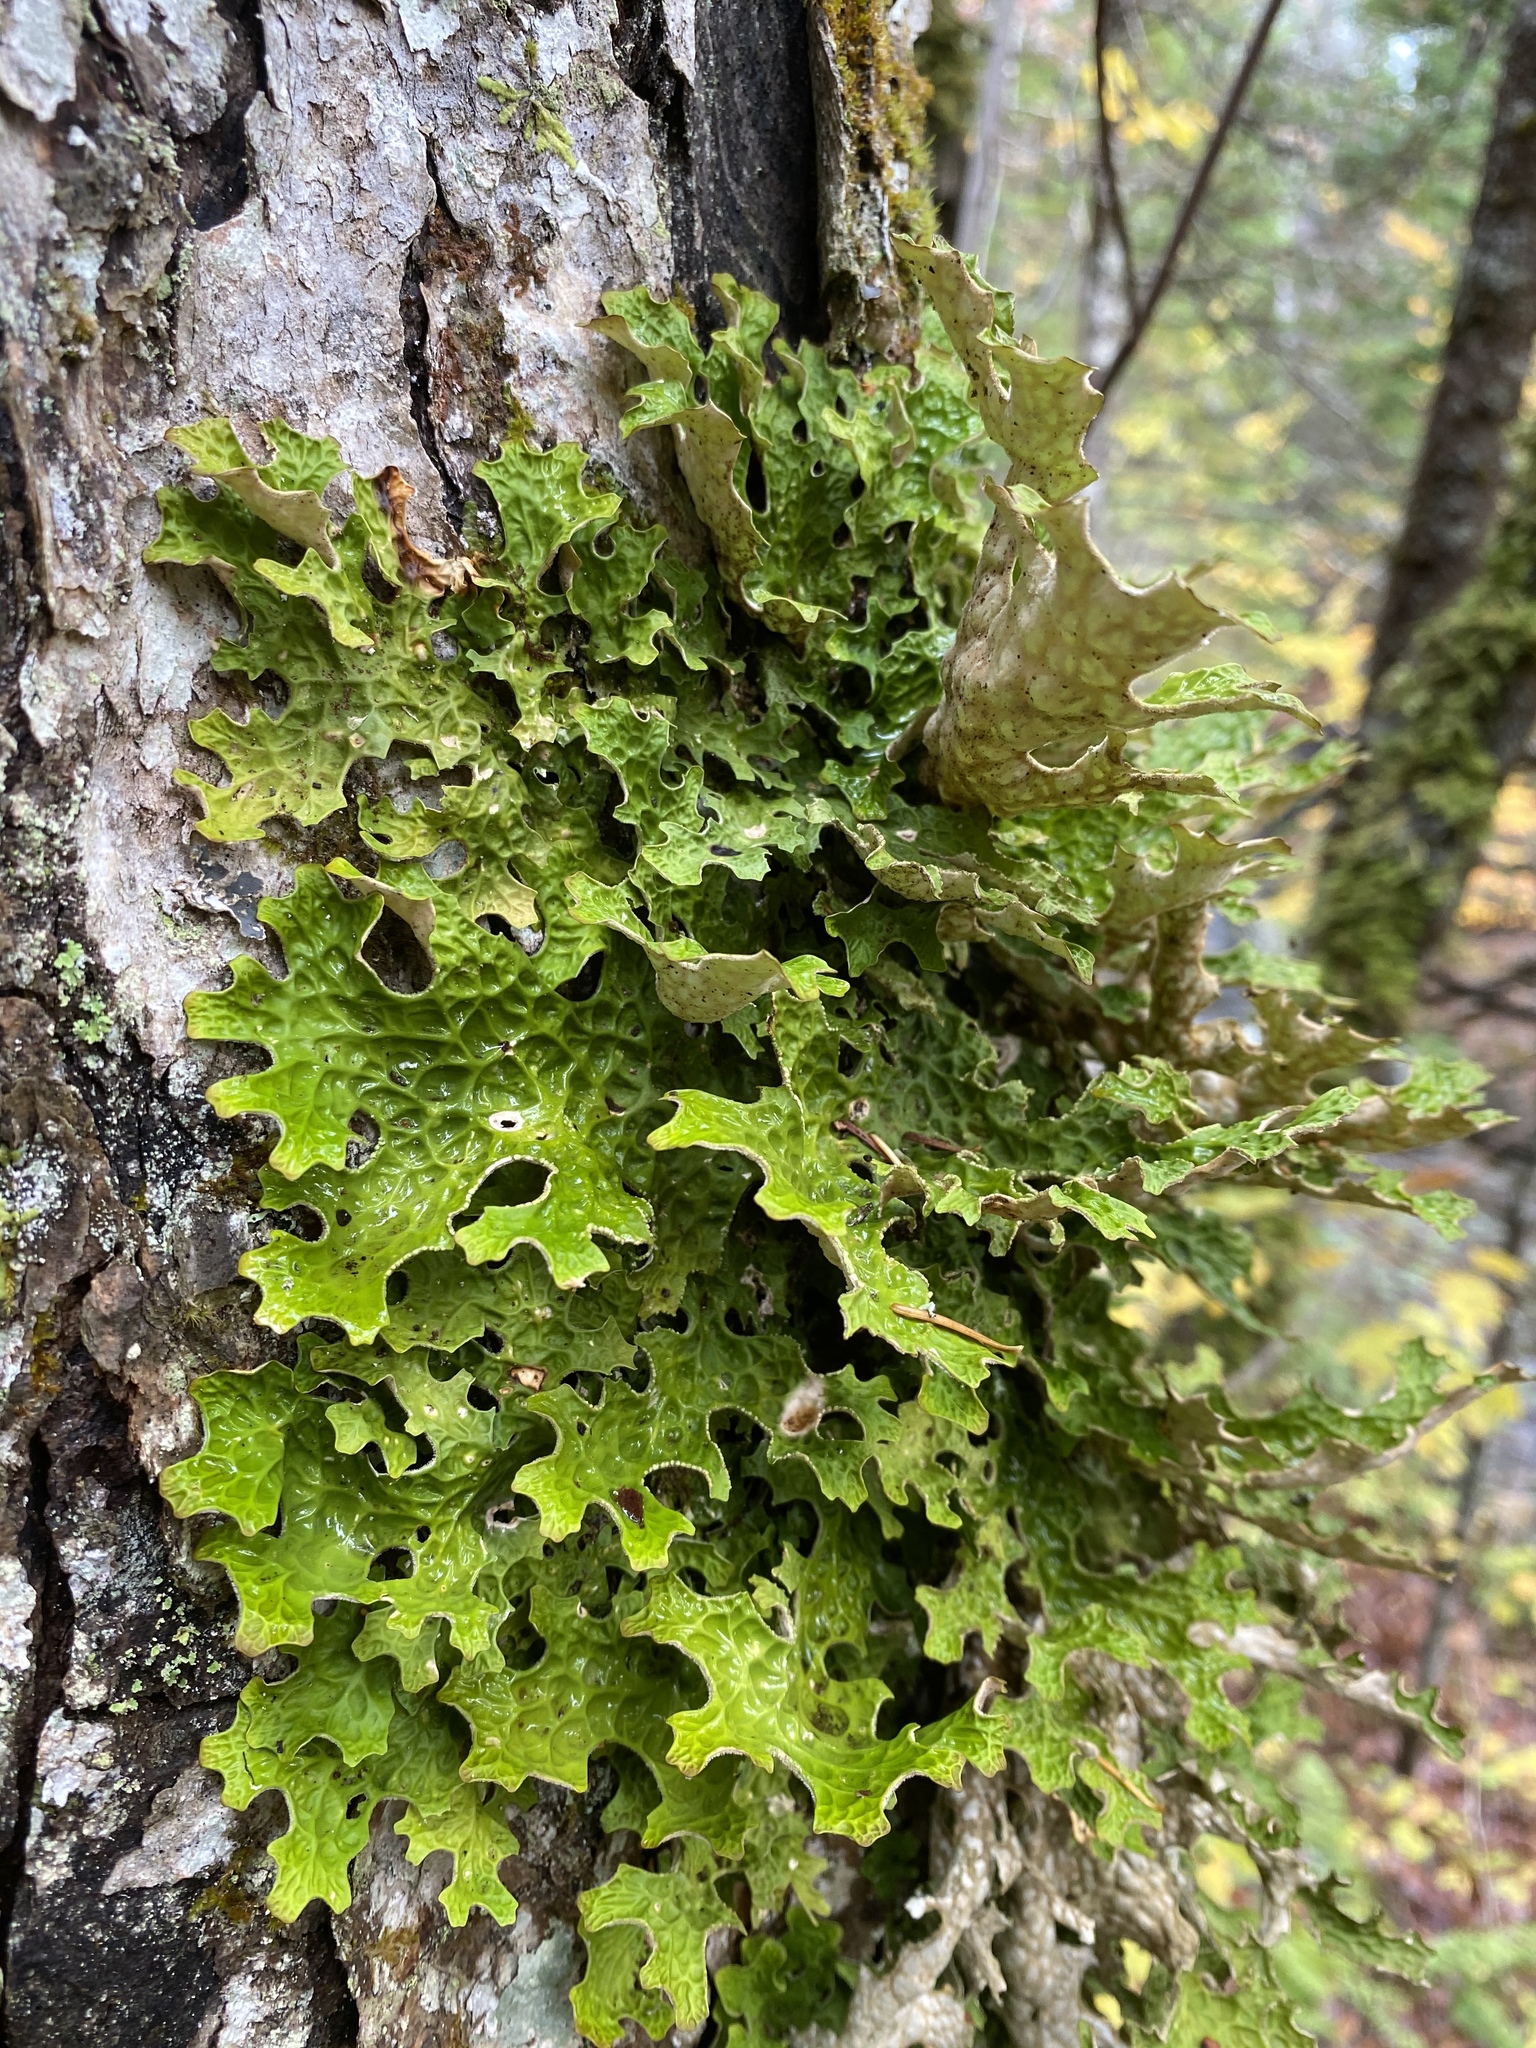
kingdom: Fungi
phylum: Ascomycota
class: Lecanoromycetes
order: Peltigerales
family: Lobariaceae
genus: Lobaria
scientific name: Lobaria pulmonaria
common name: Lungwort
